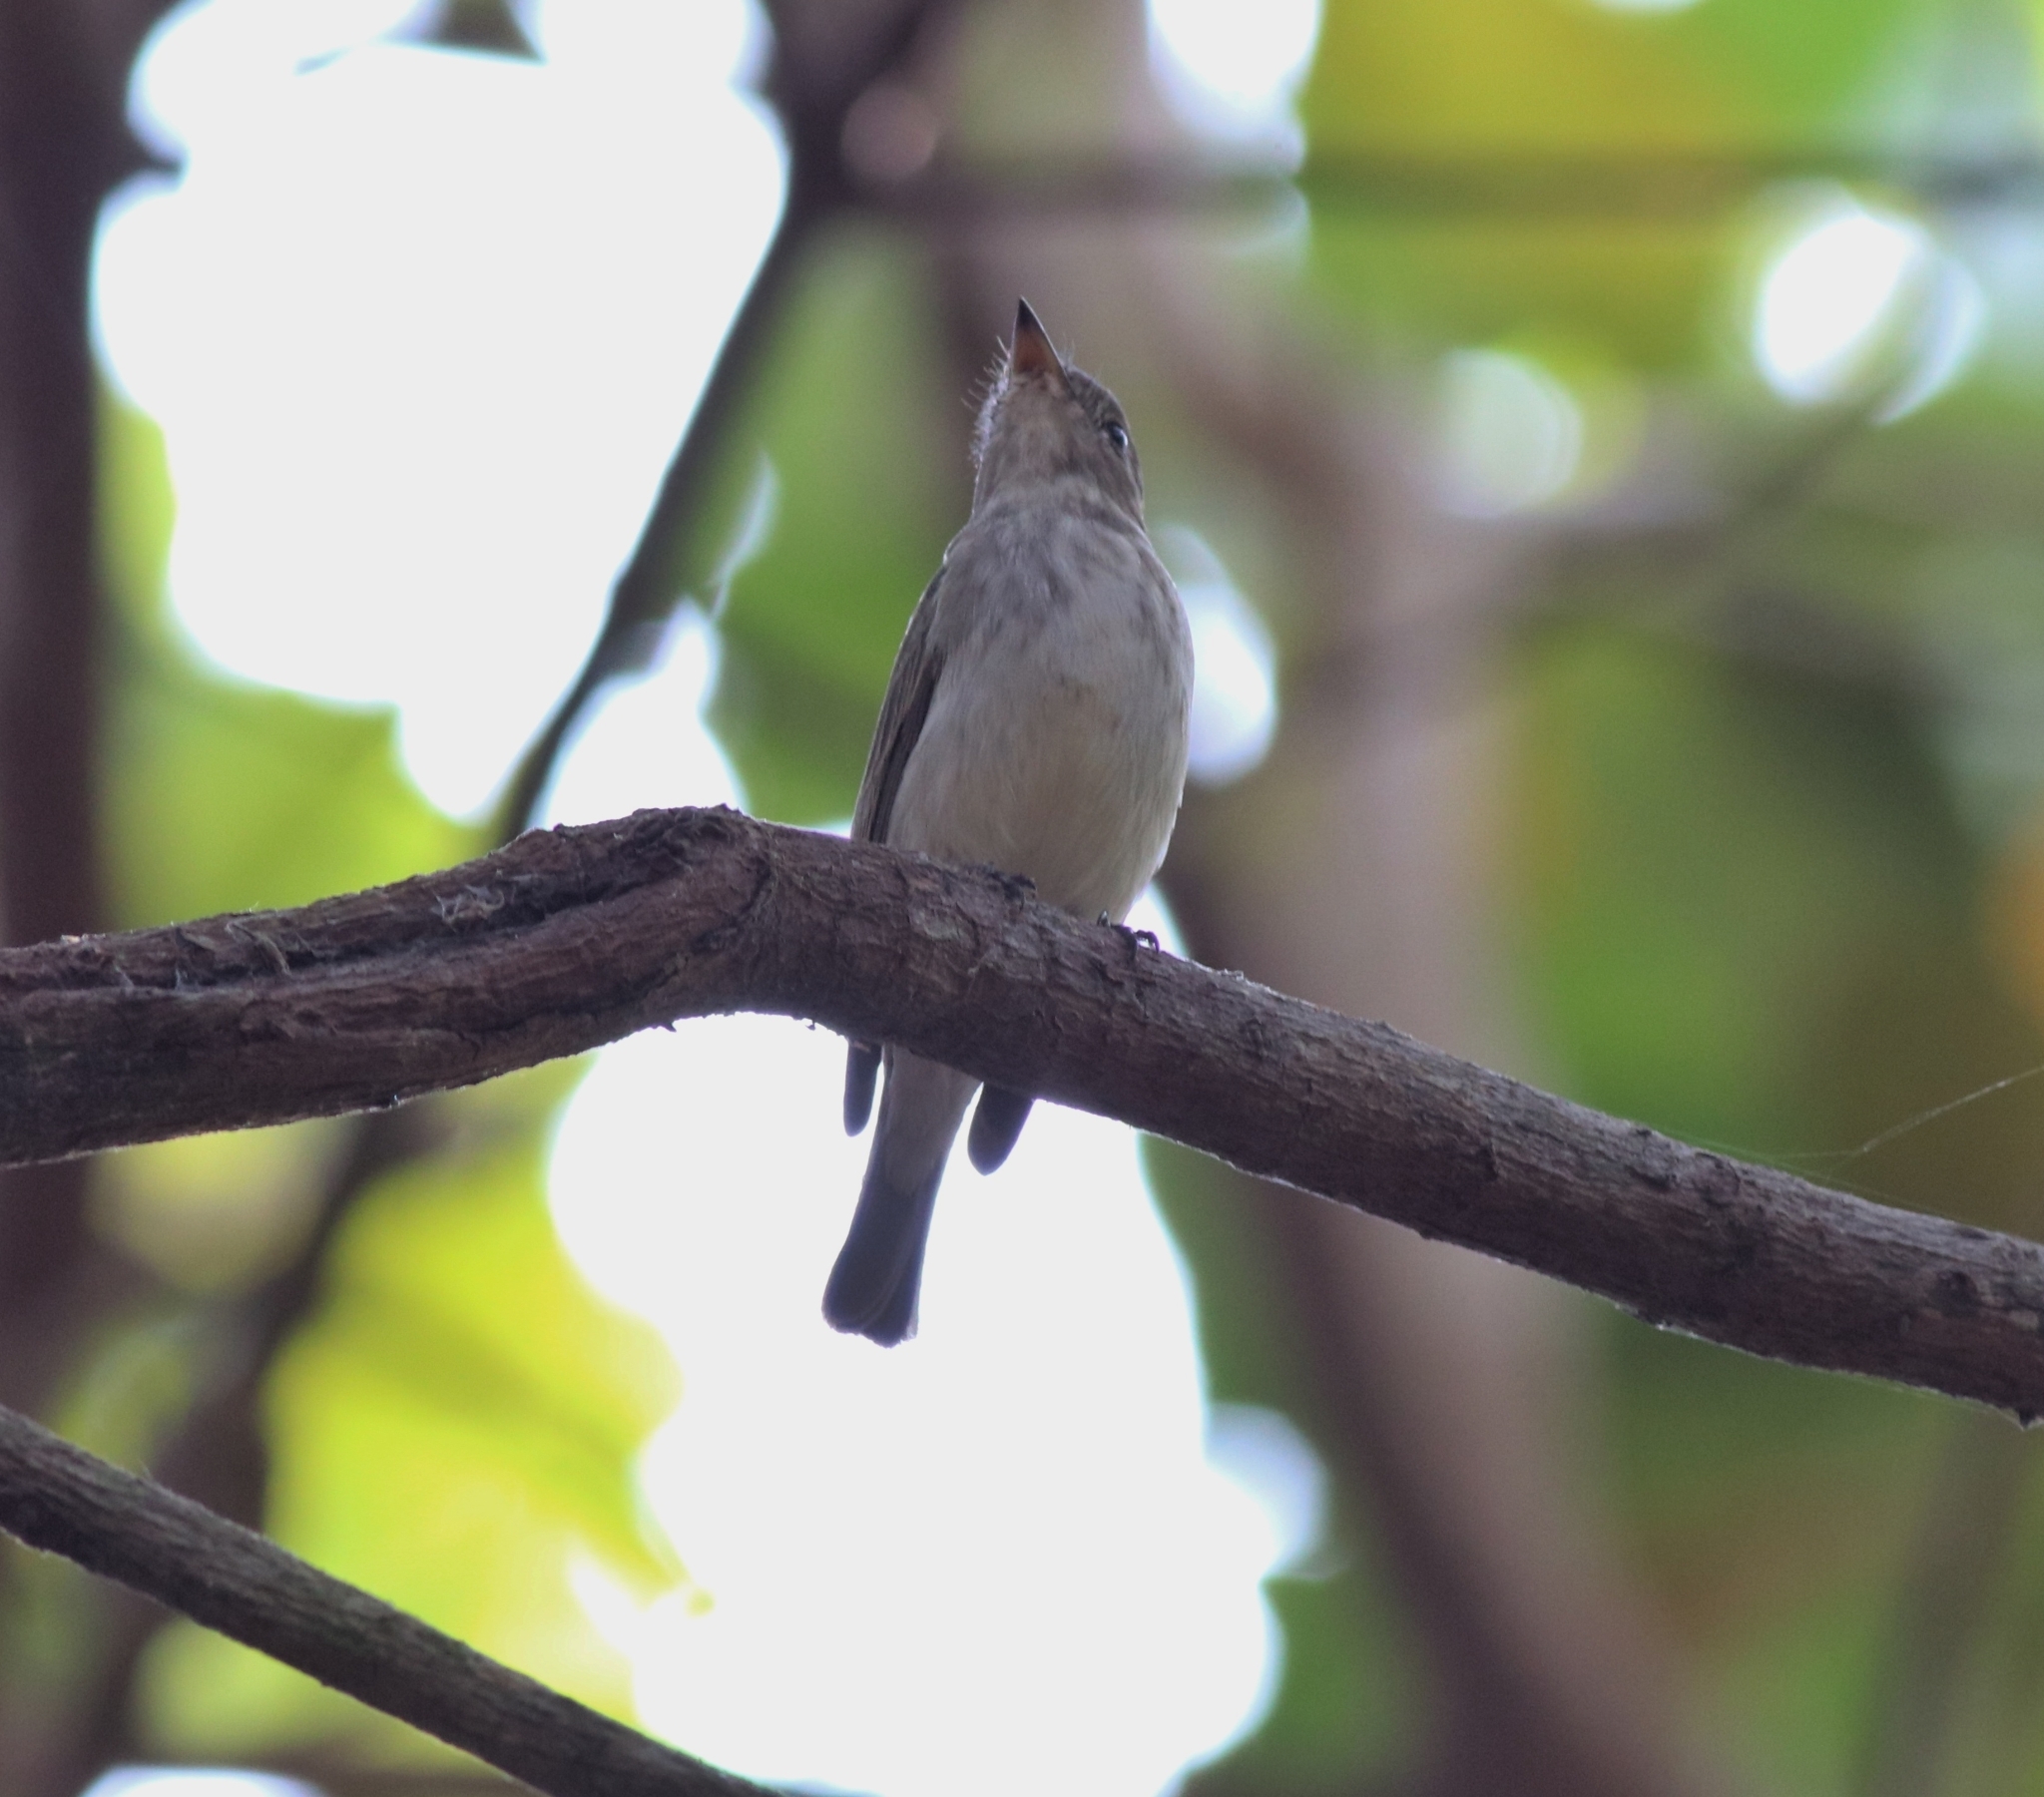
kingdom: Animalia
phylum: Chordata
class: Aves
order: Passeriformes
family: Muscicapidae
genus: Muscicapa
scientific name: Muscicapa latirostris
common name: Asian brown flycatcher
